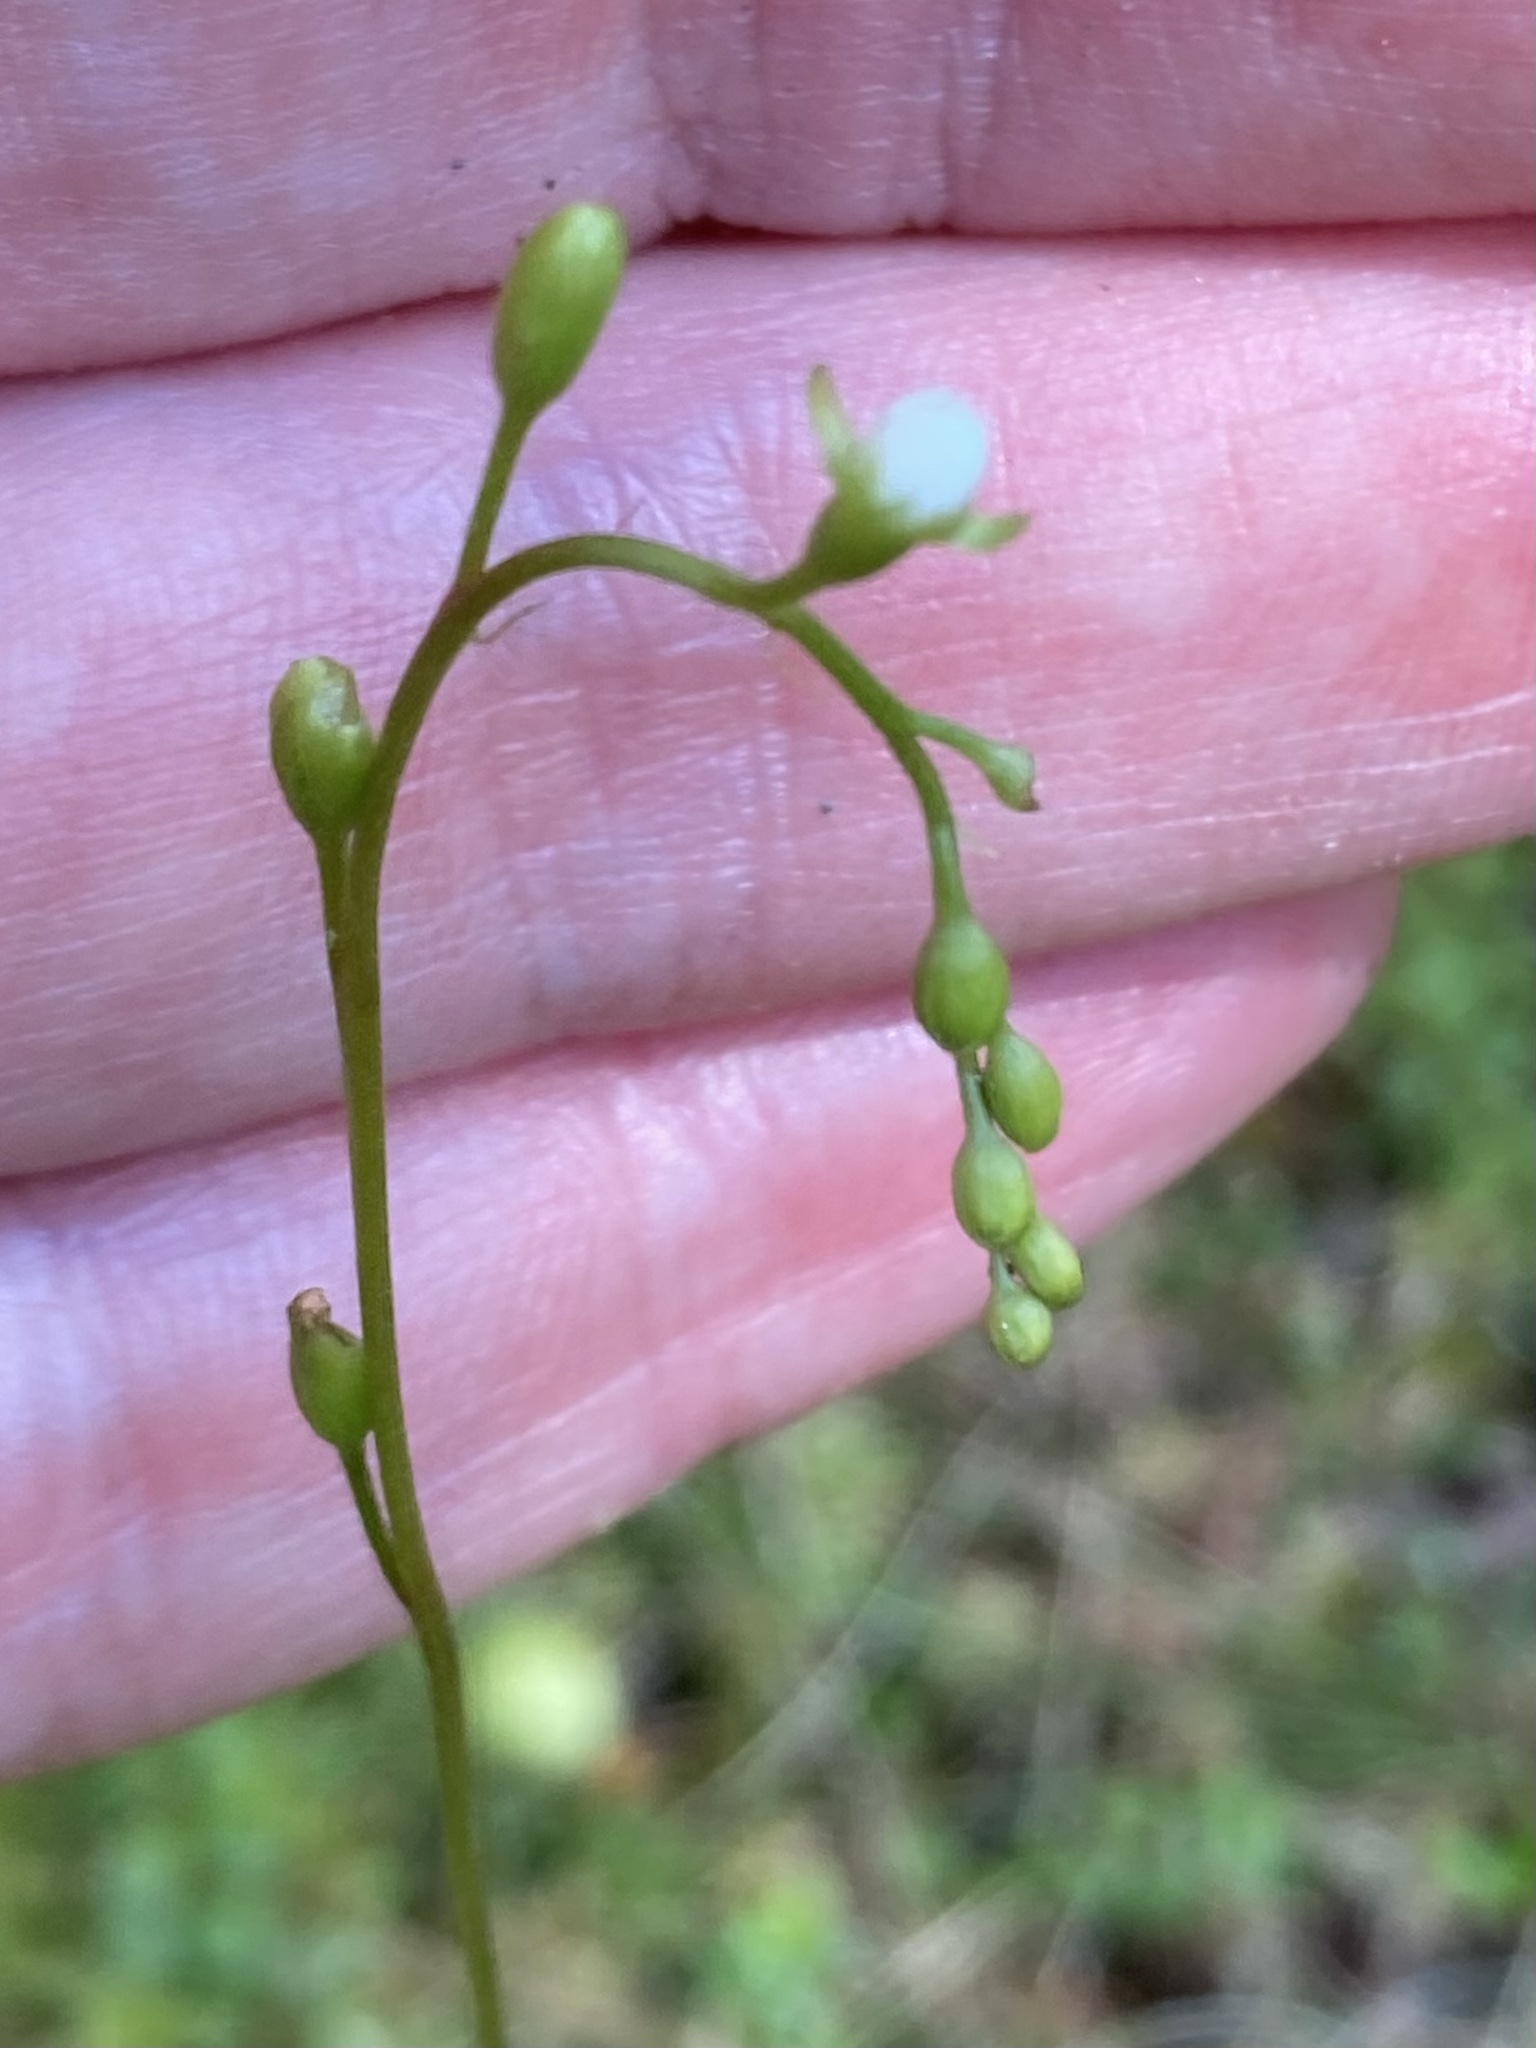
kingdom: Plantae
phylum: Tracheophyta
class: Magnoliopsida
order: Caryophyllales
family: Droseraceae
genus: Drosera
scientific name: Drosera rotundifolia
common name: Round-leaved sundew
